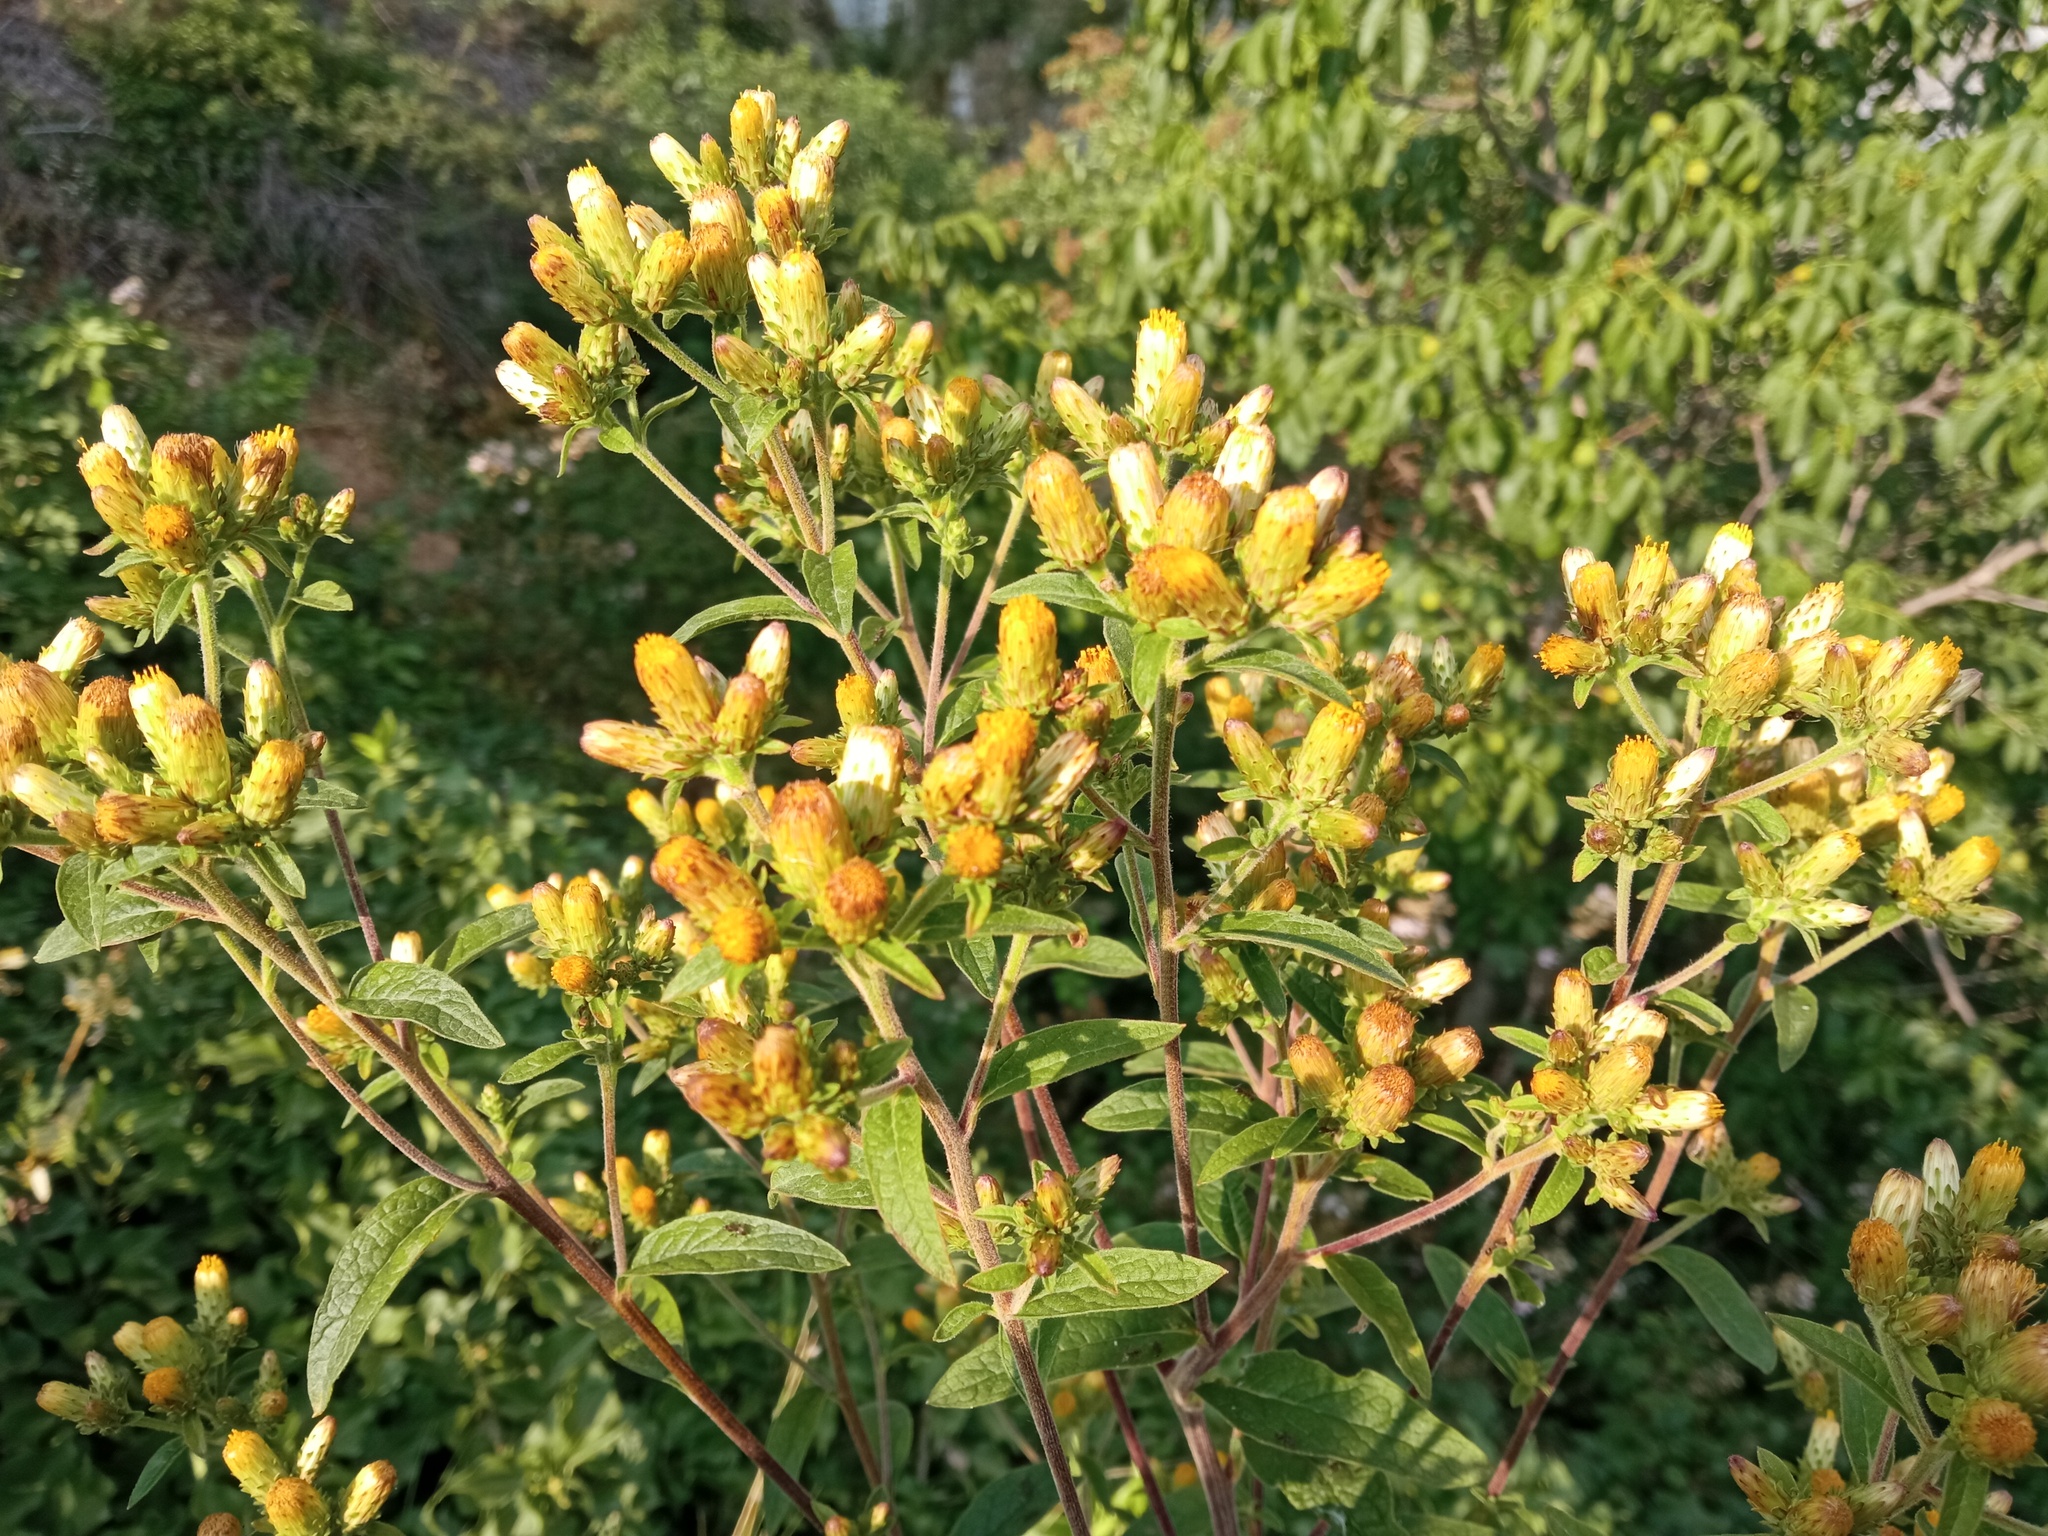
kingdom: Plantae
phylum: Tracheophyta
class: Magnoliopsida
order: Asterales
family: Asteraceae
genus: Pentanema
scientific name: Pentanema squarrosum
